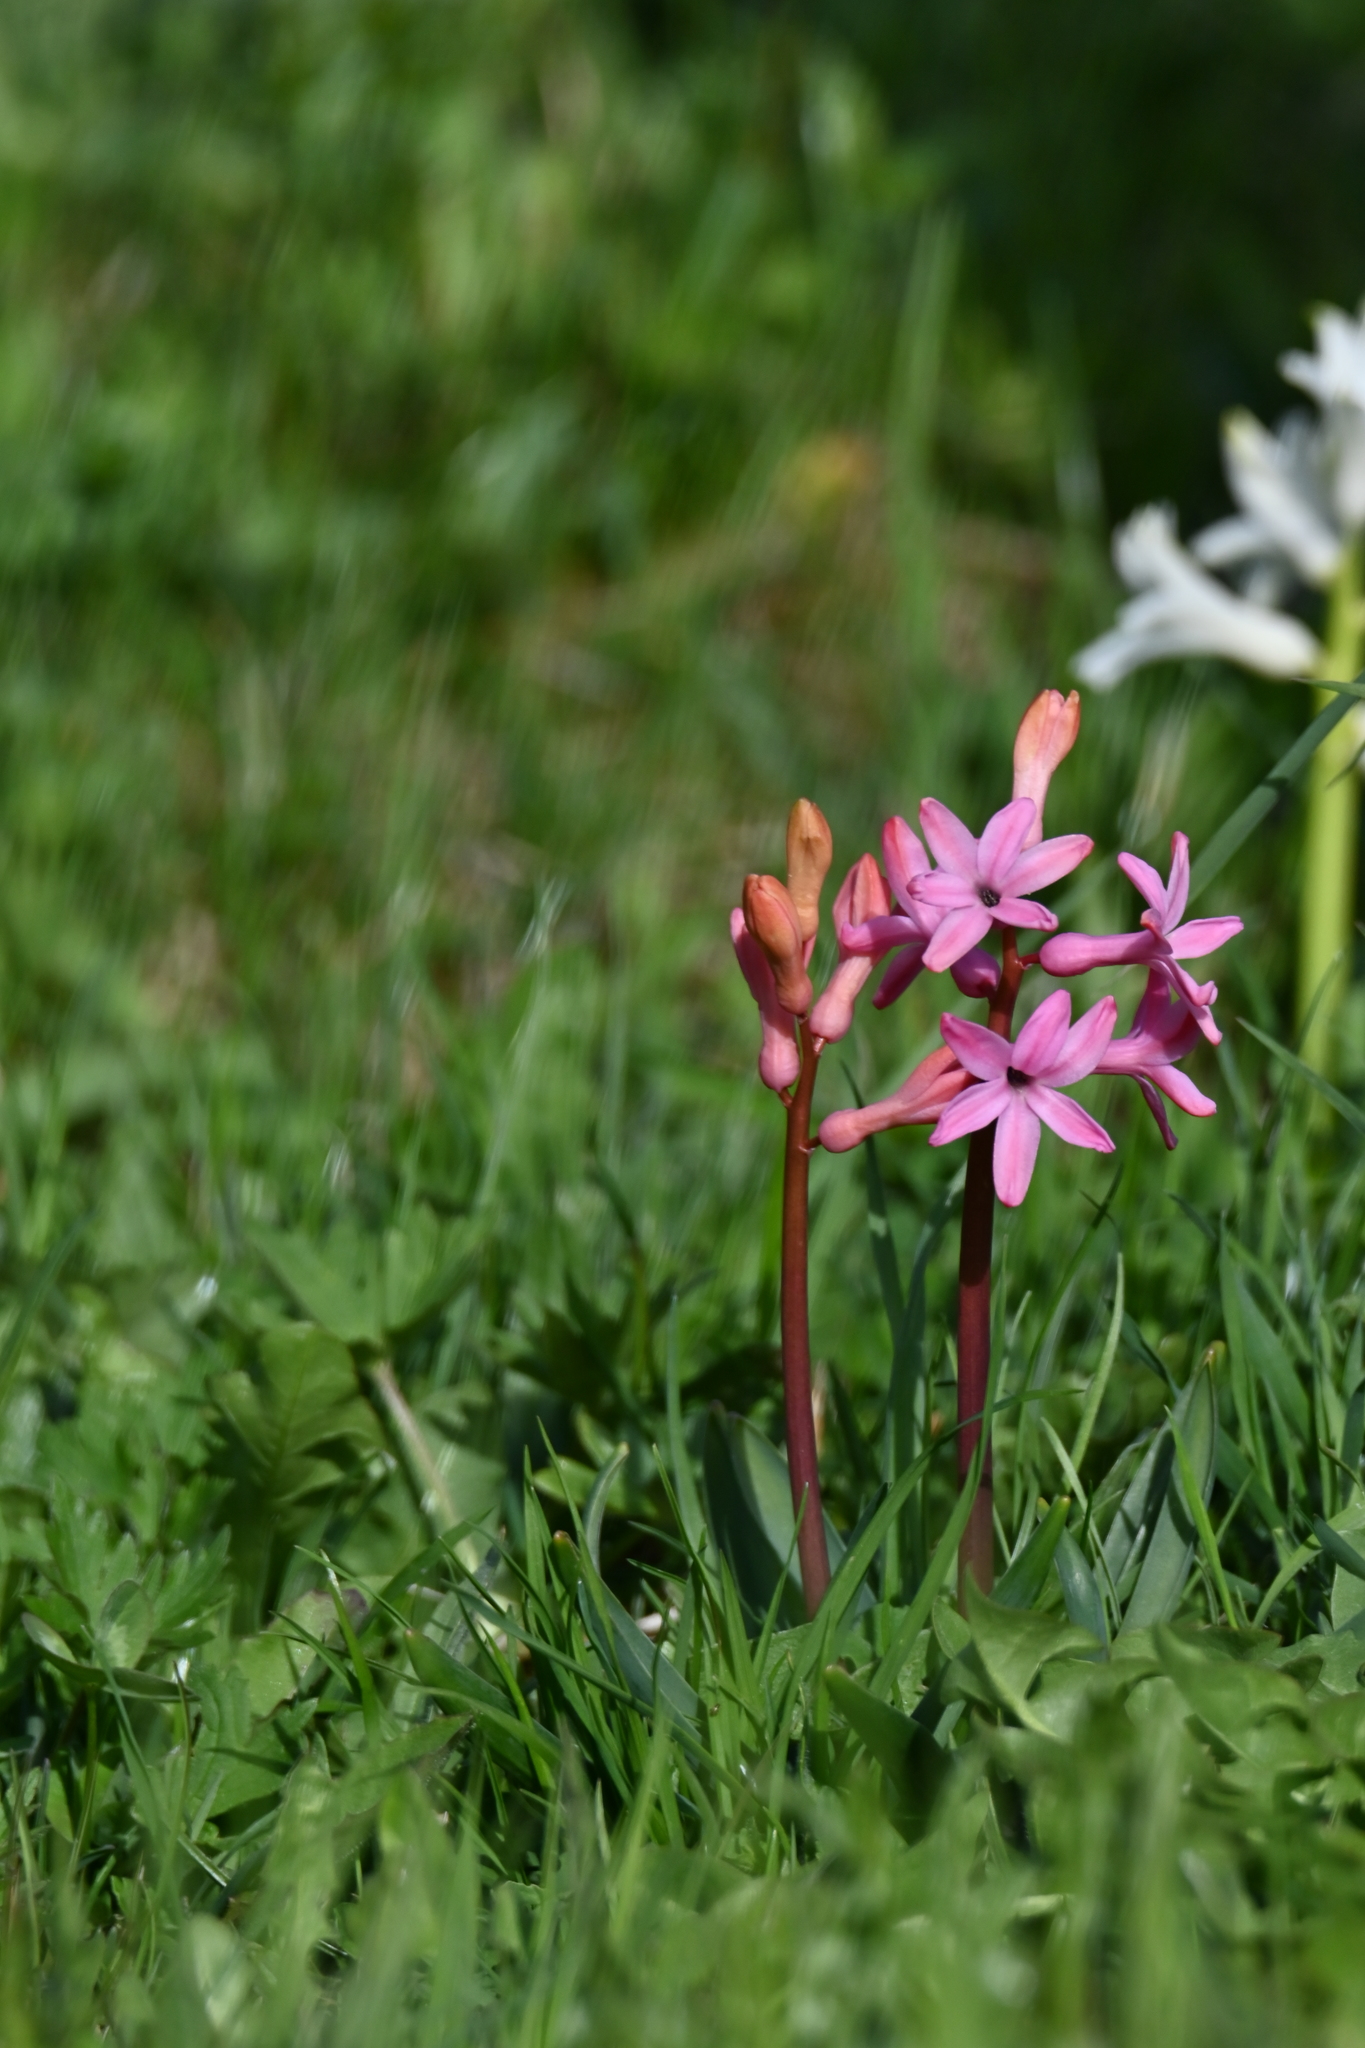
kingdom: Plantae
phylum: Tracheophyta
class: Liliopsida
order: Asparagales
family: Asparagaceae
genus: Hyacinthus
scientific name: Hyacinthus orientalis
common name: Hyacinth
